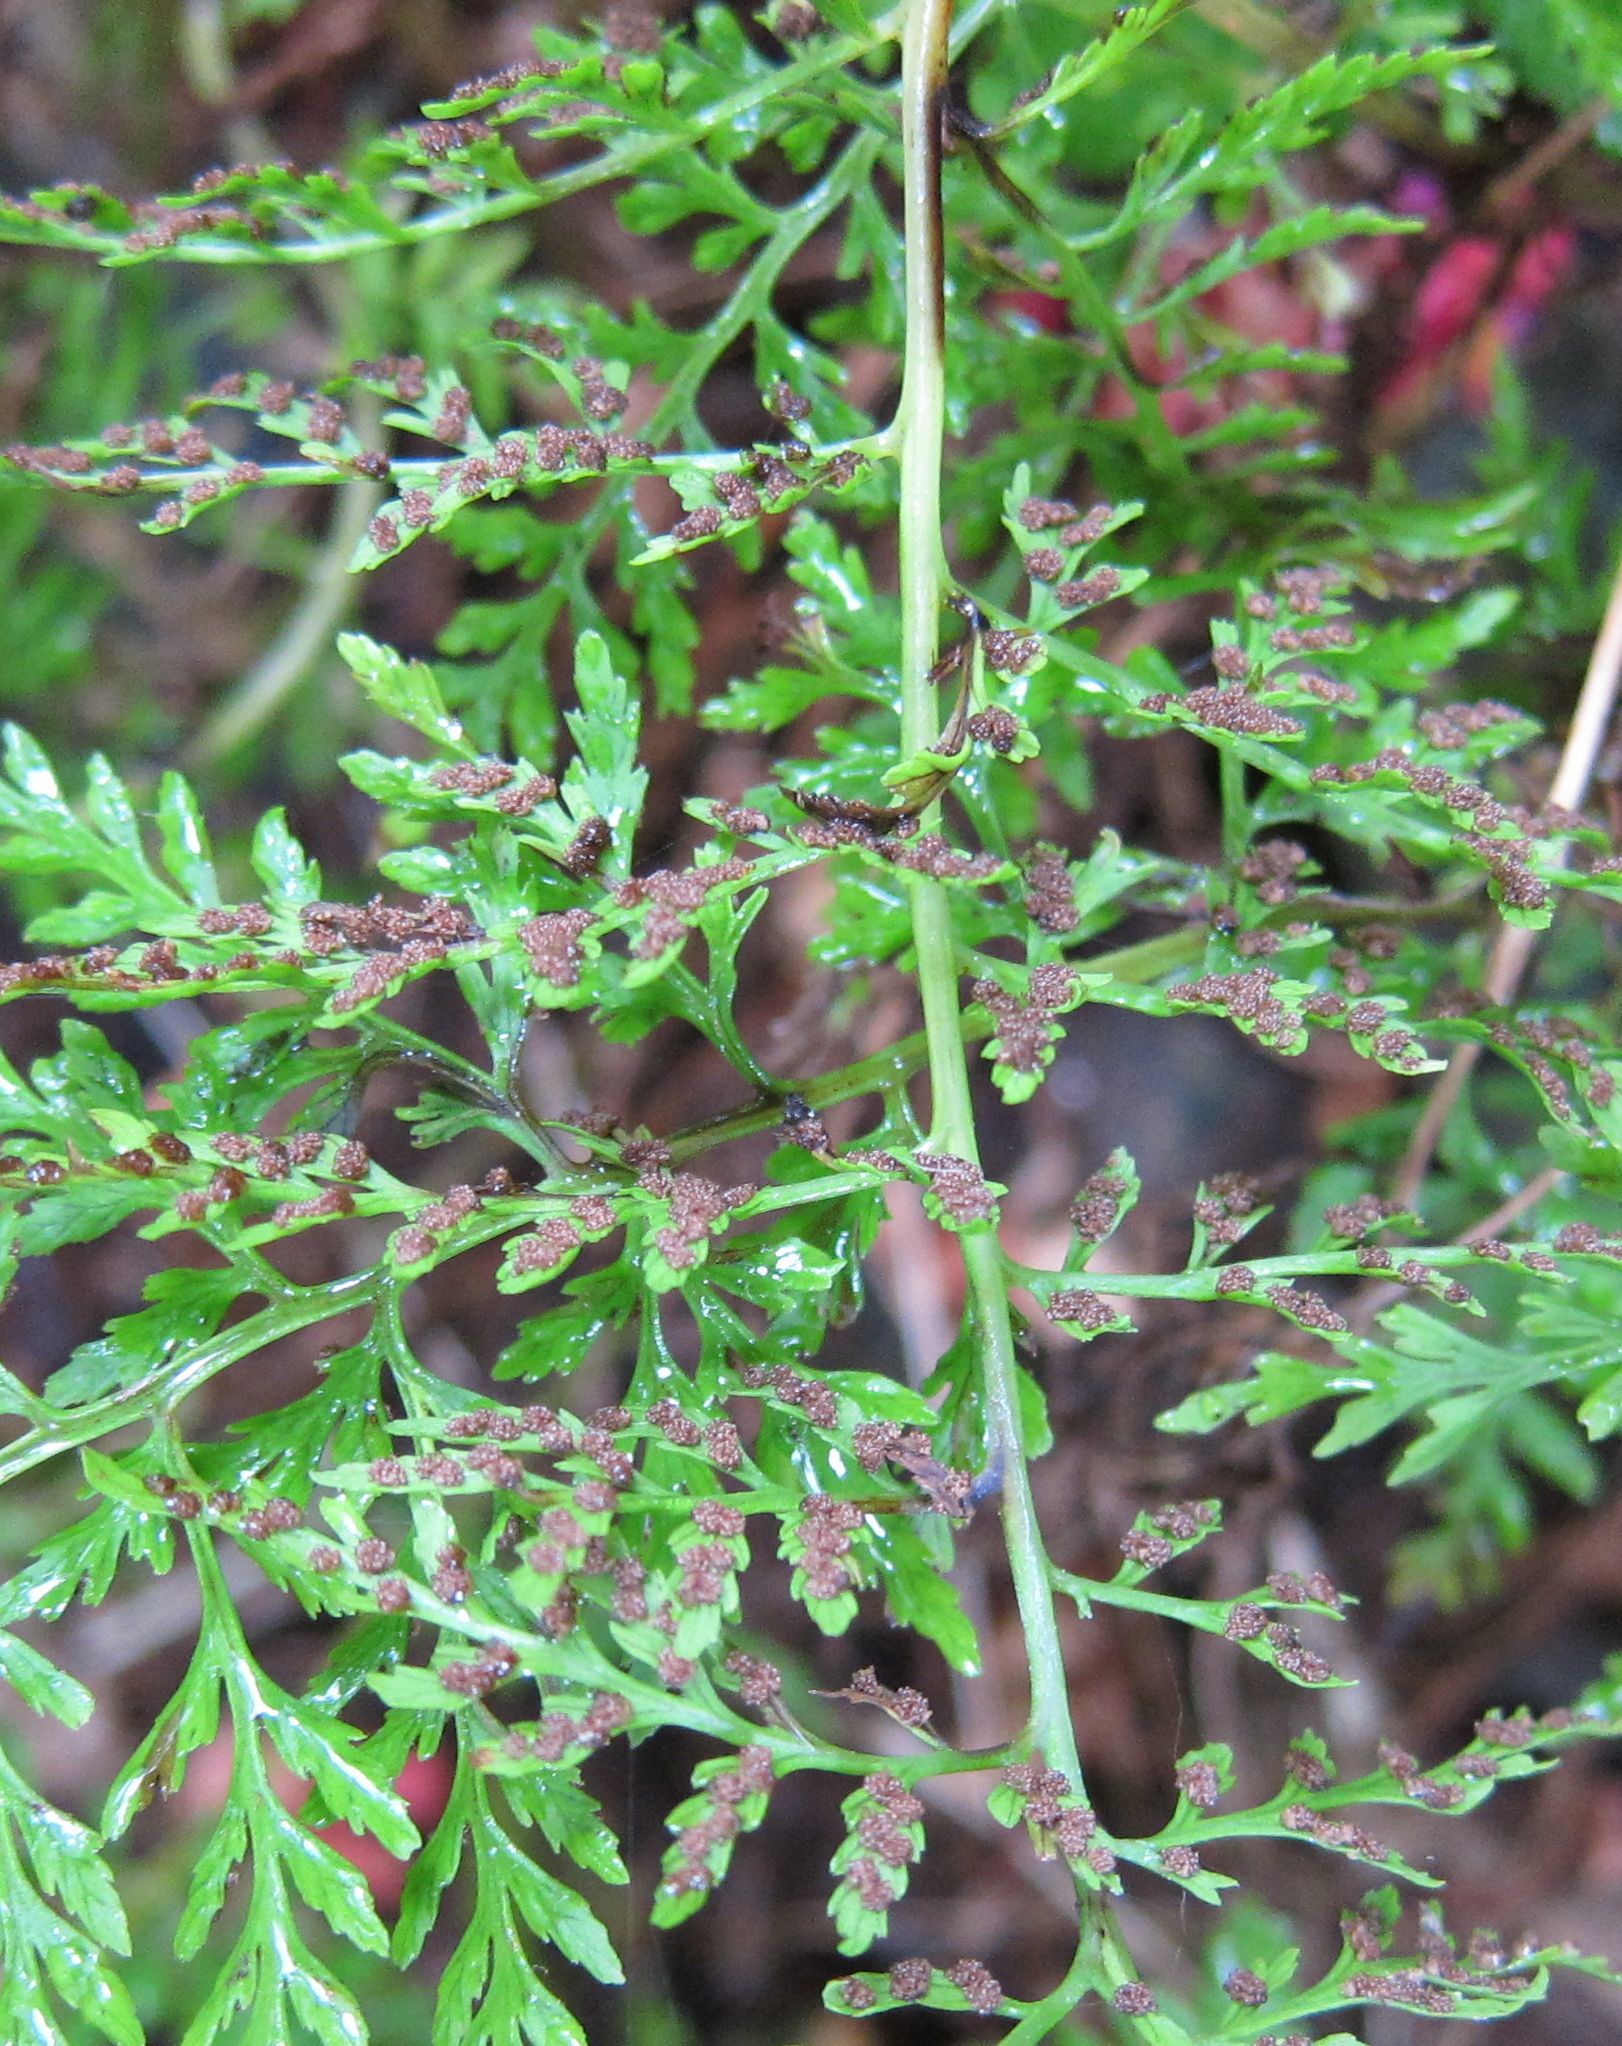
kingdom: Plantae
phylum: Tracheophyta
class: Polypodiopsida
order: Polypodiales
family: Aspleniaceae
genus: Asplenium
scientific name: Asplenium appendiculatum
